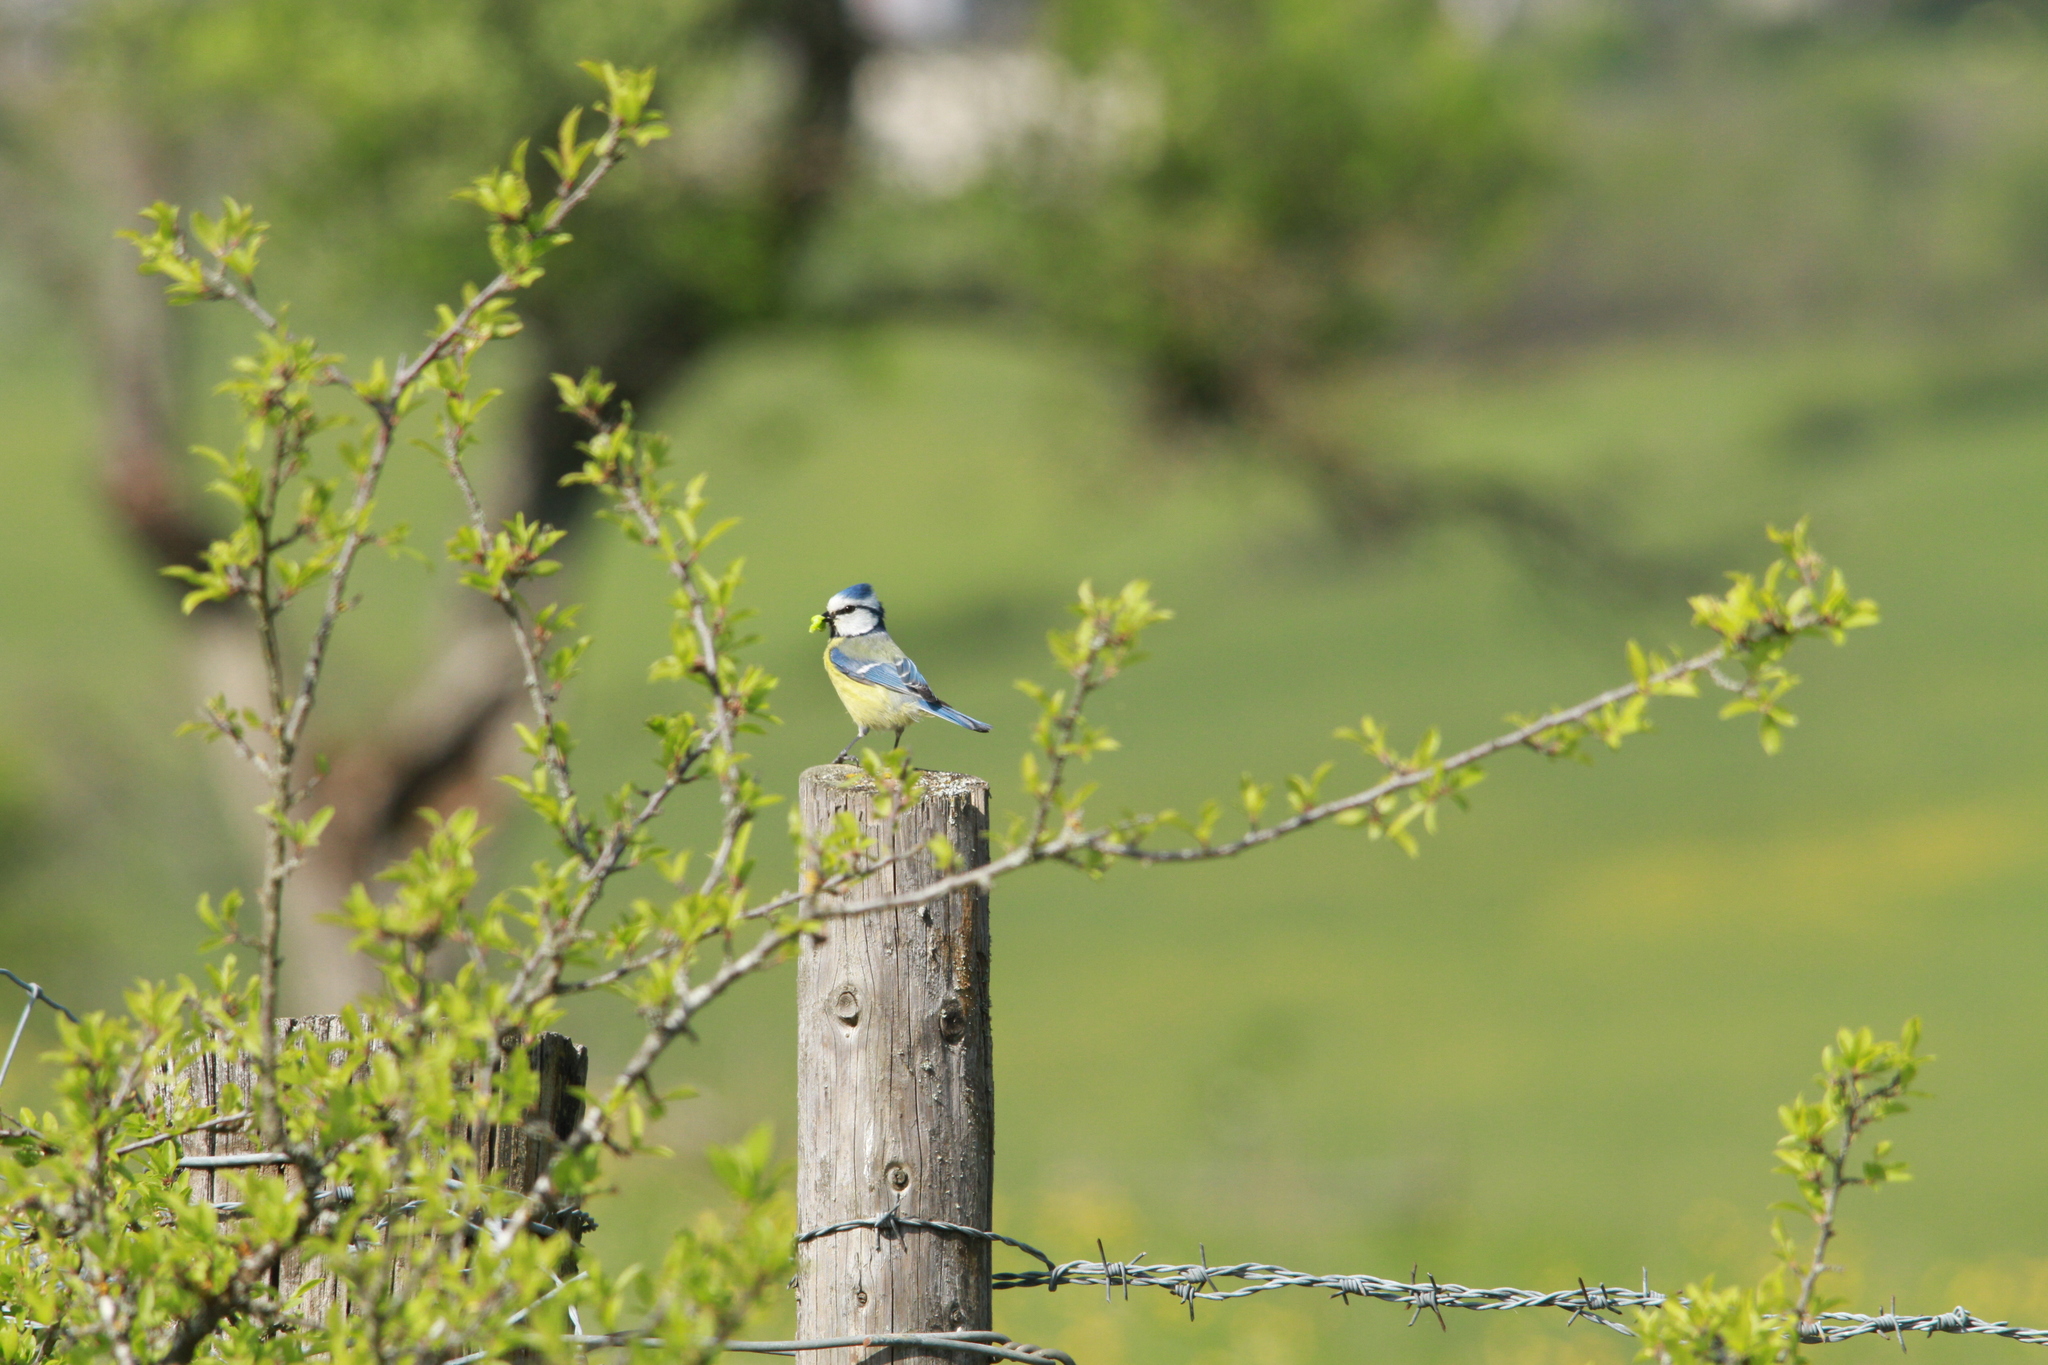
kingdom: Animalia
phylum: Chordata
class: Aves
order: Passeriformes
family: Paridae
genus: Cyanistes
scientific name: Cyanistes caeruleus
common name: Eurasian blue tit
